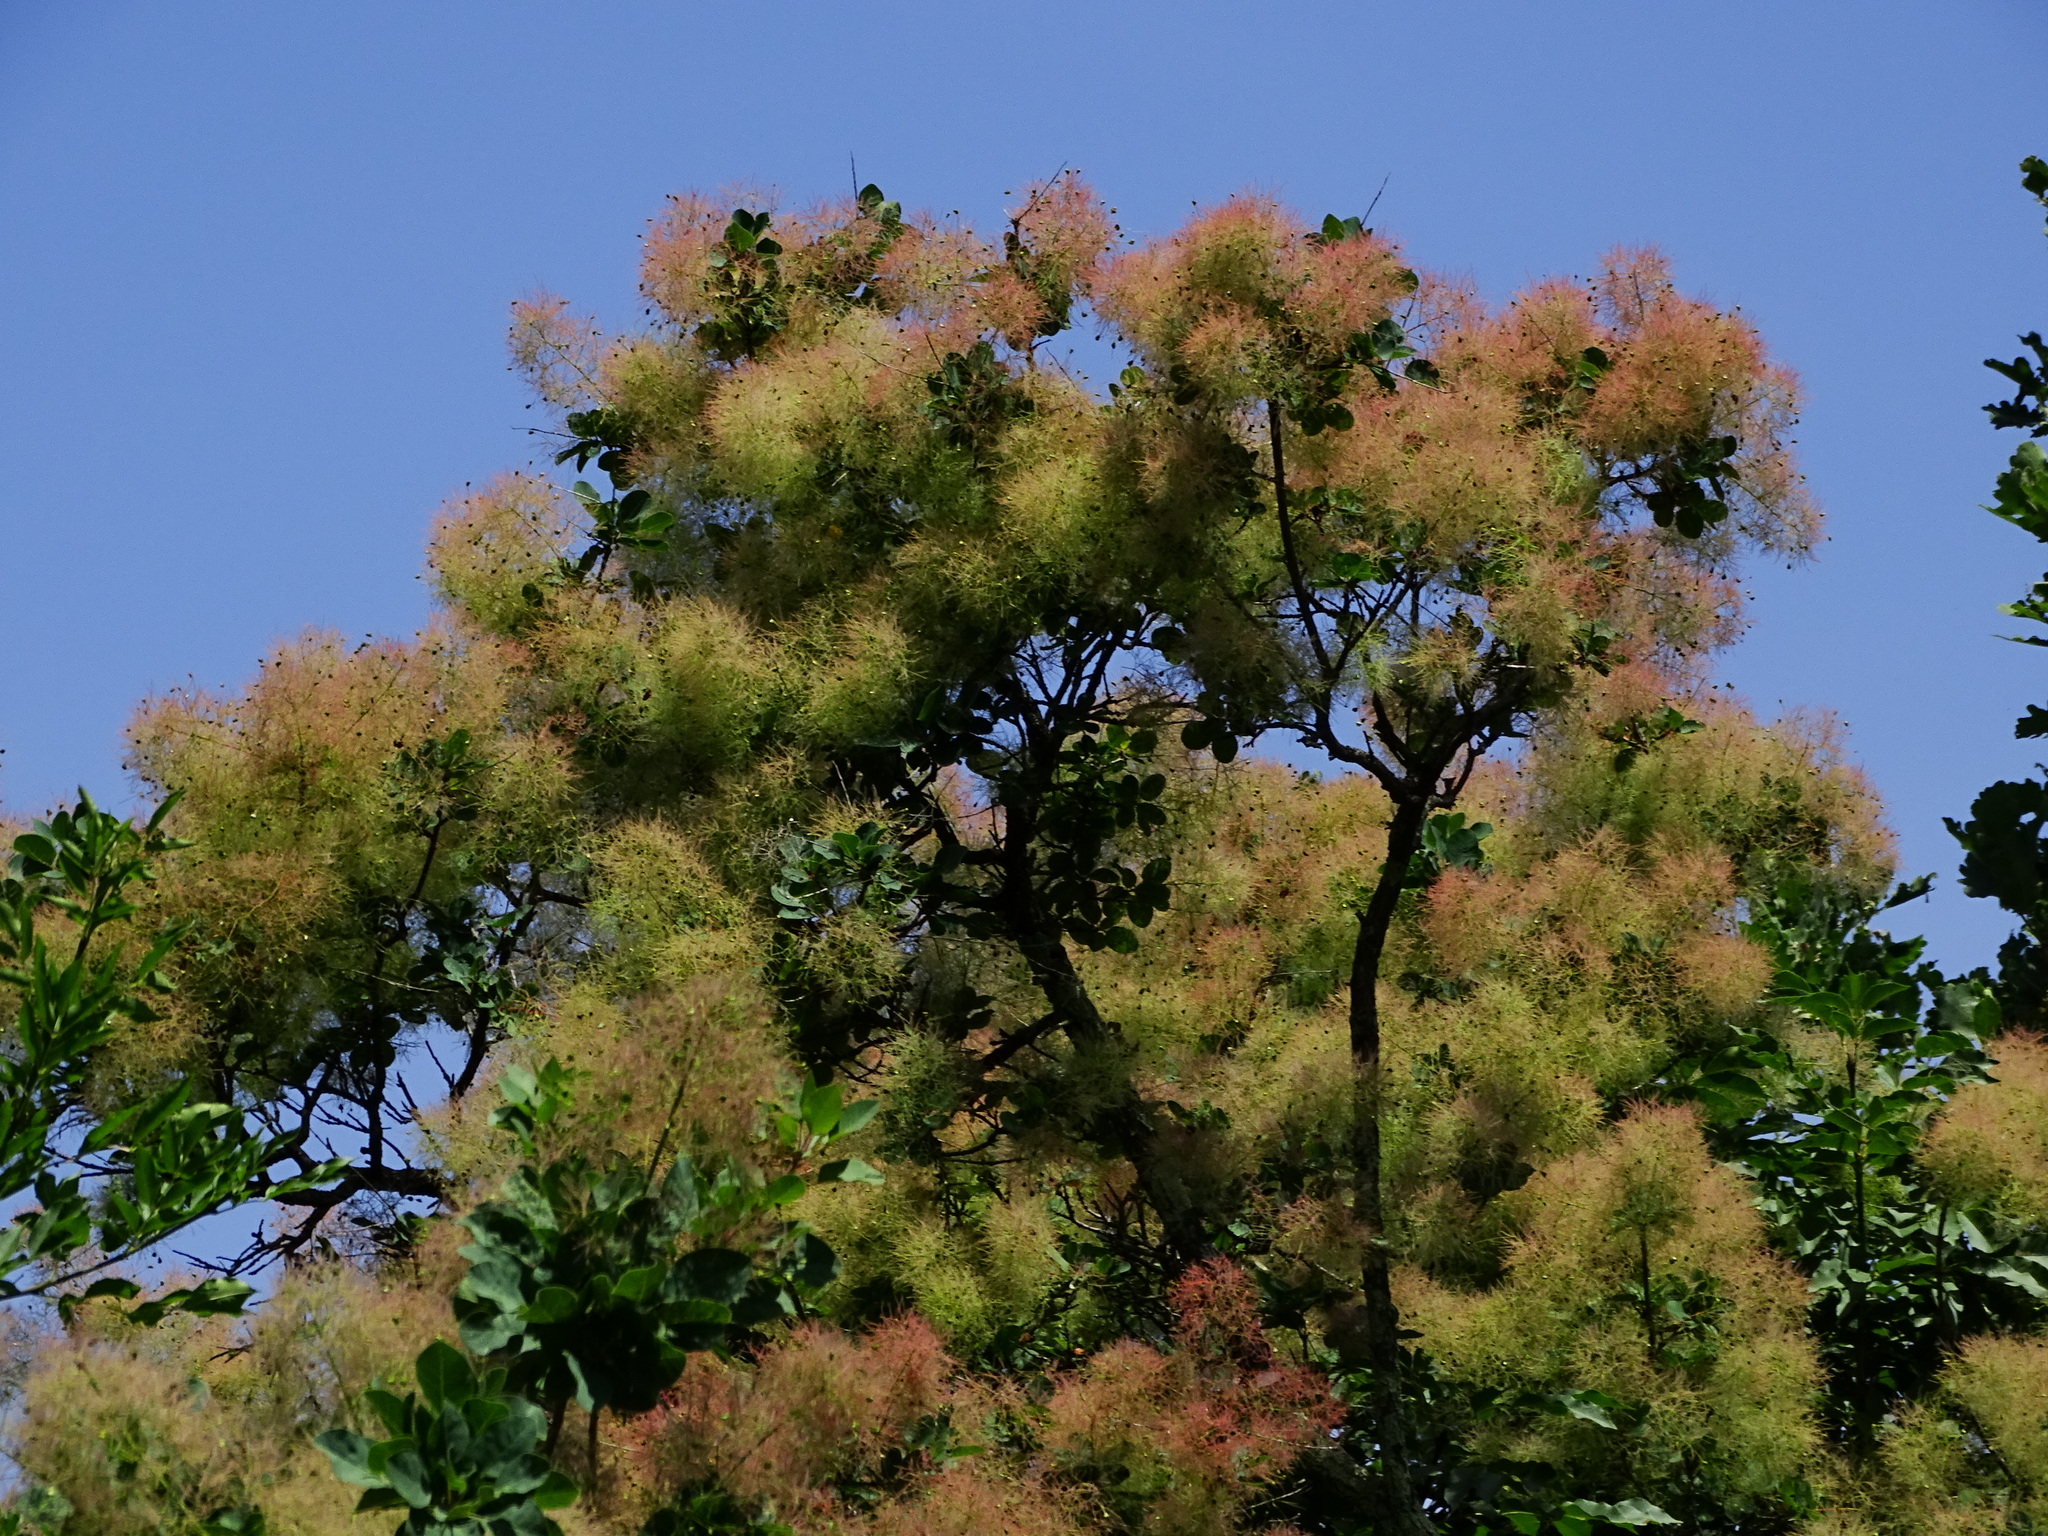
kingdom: Plantae
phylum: Tracheophyta
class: Magnoliopsida
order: Sapindales
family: Anacardiaceae
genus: Cotinus
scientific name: Cotinus coggygria
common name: Smoke-tree
